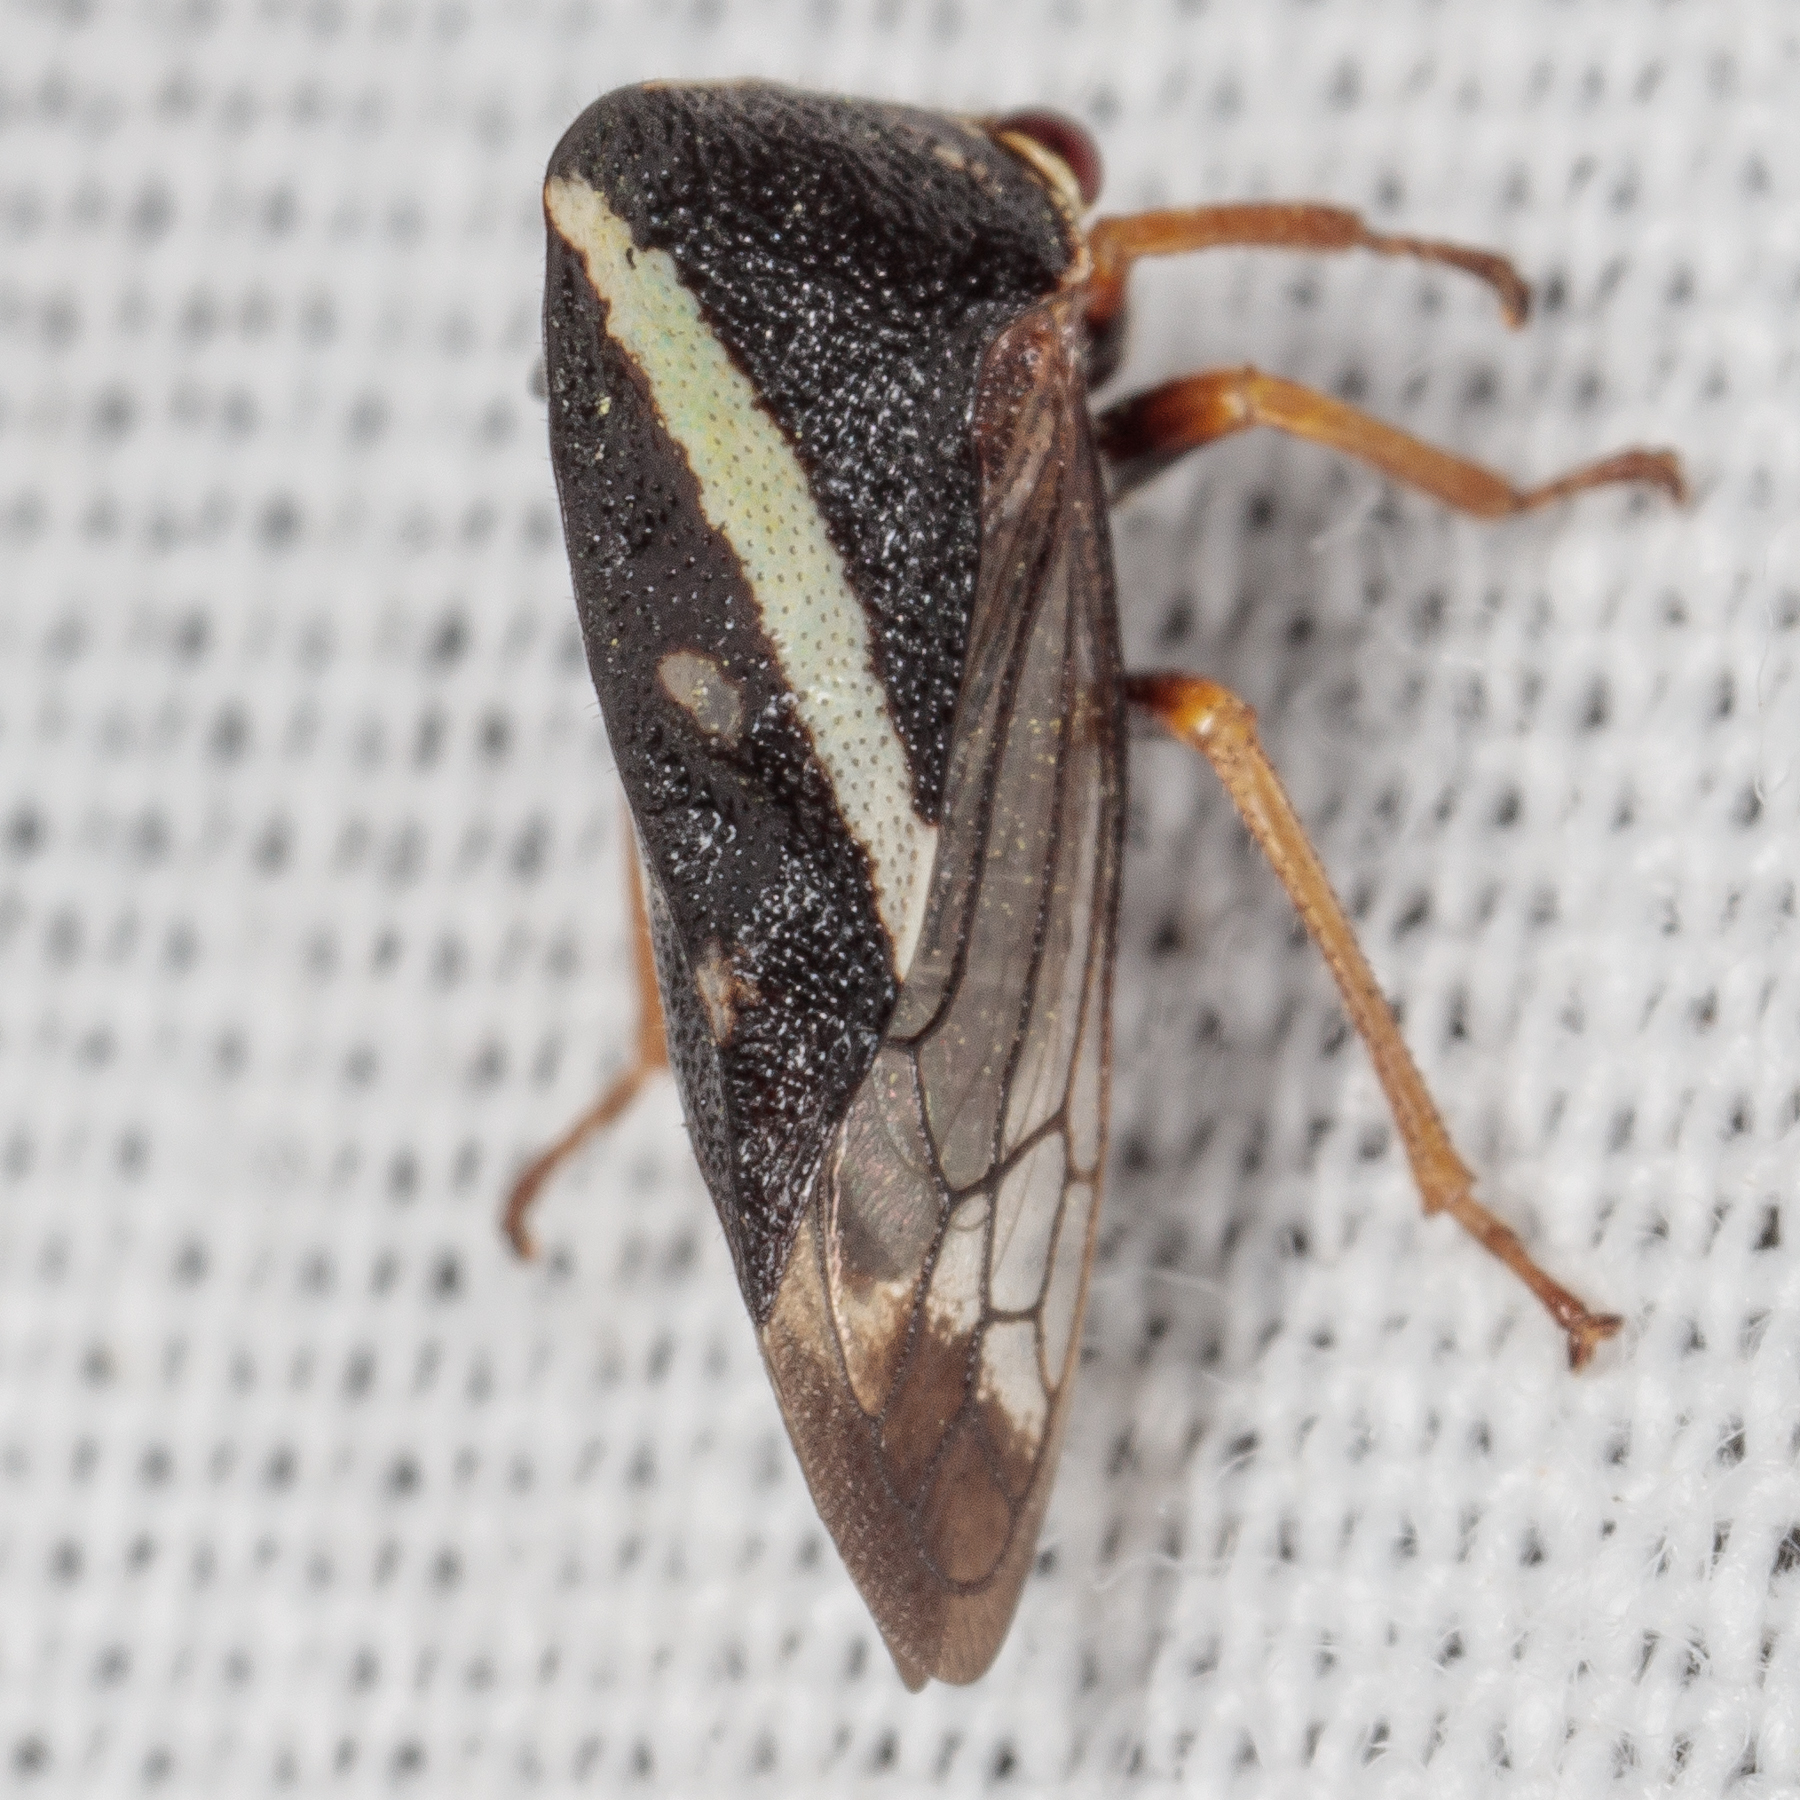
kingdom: Animalia
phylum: Arthropoda
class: Insecta
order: Hemiptera
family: Membracidae
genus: Smilia
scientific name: Smilia camelus
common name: Camel treehopper
